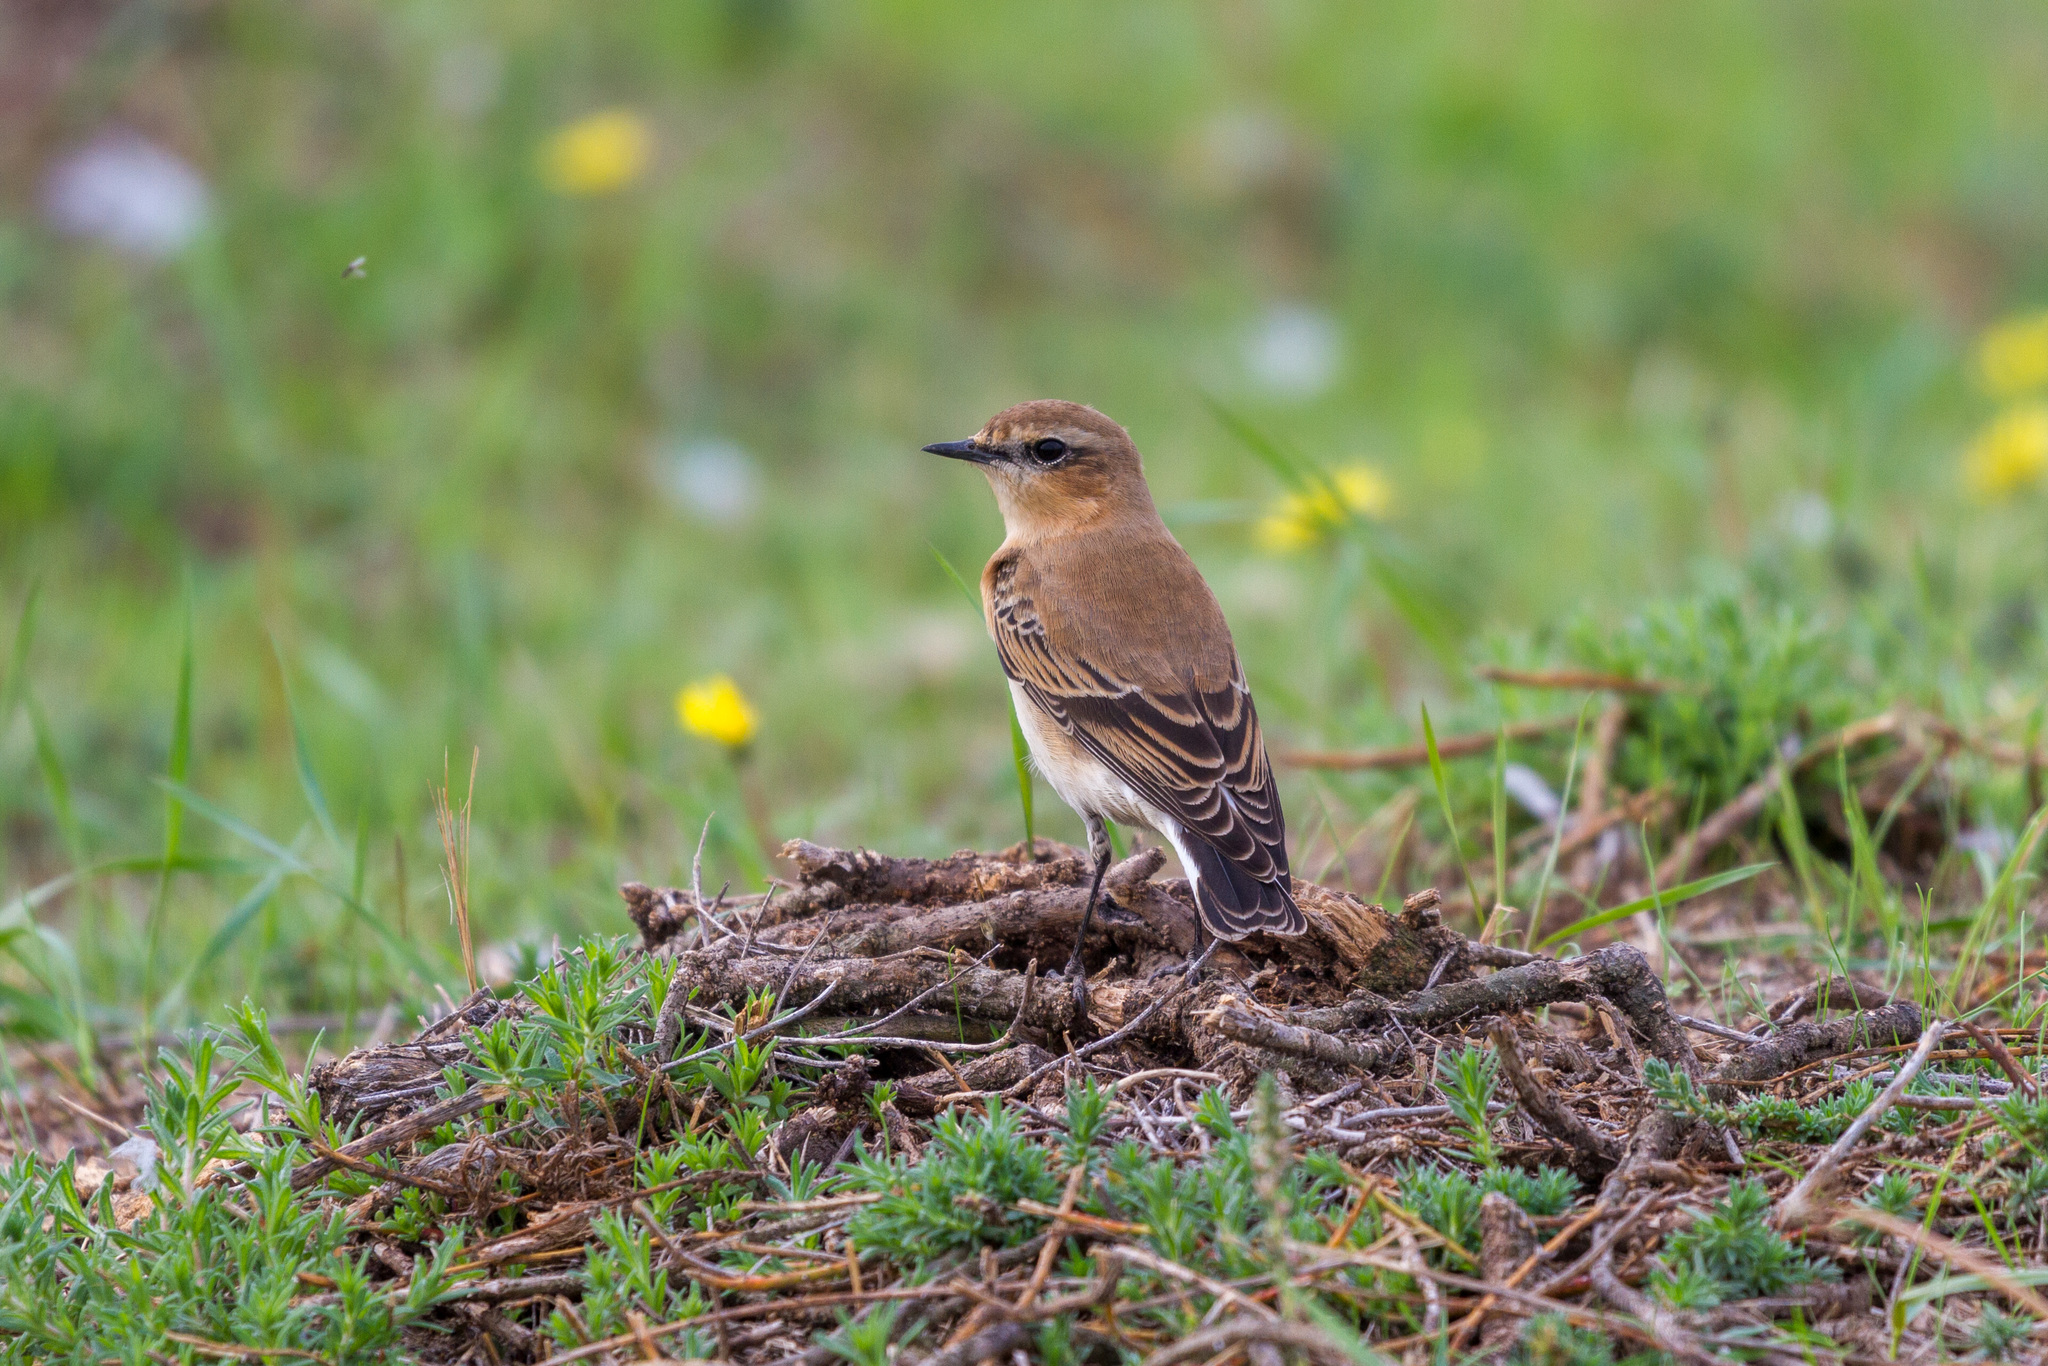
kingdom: Animalia
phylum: Chordata
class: Aves
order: Passeriformes
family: Muscicapidae
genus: Oenanthe
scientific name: Oenanthe oenanthe
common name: Northern wheatear
